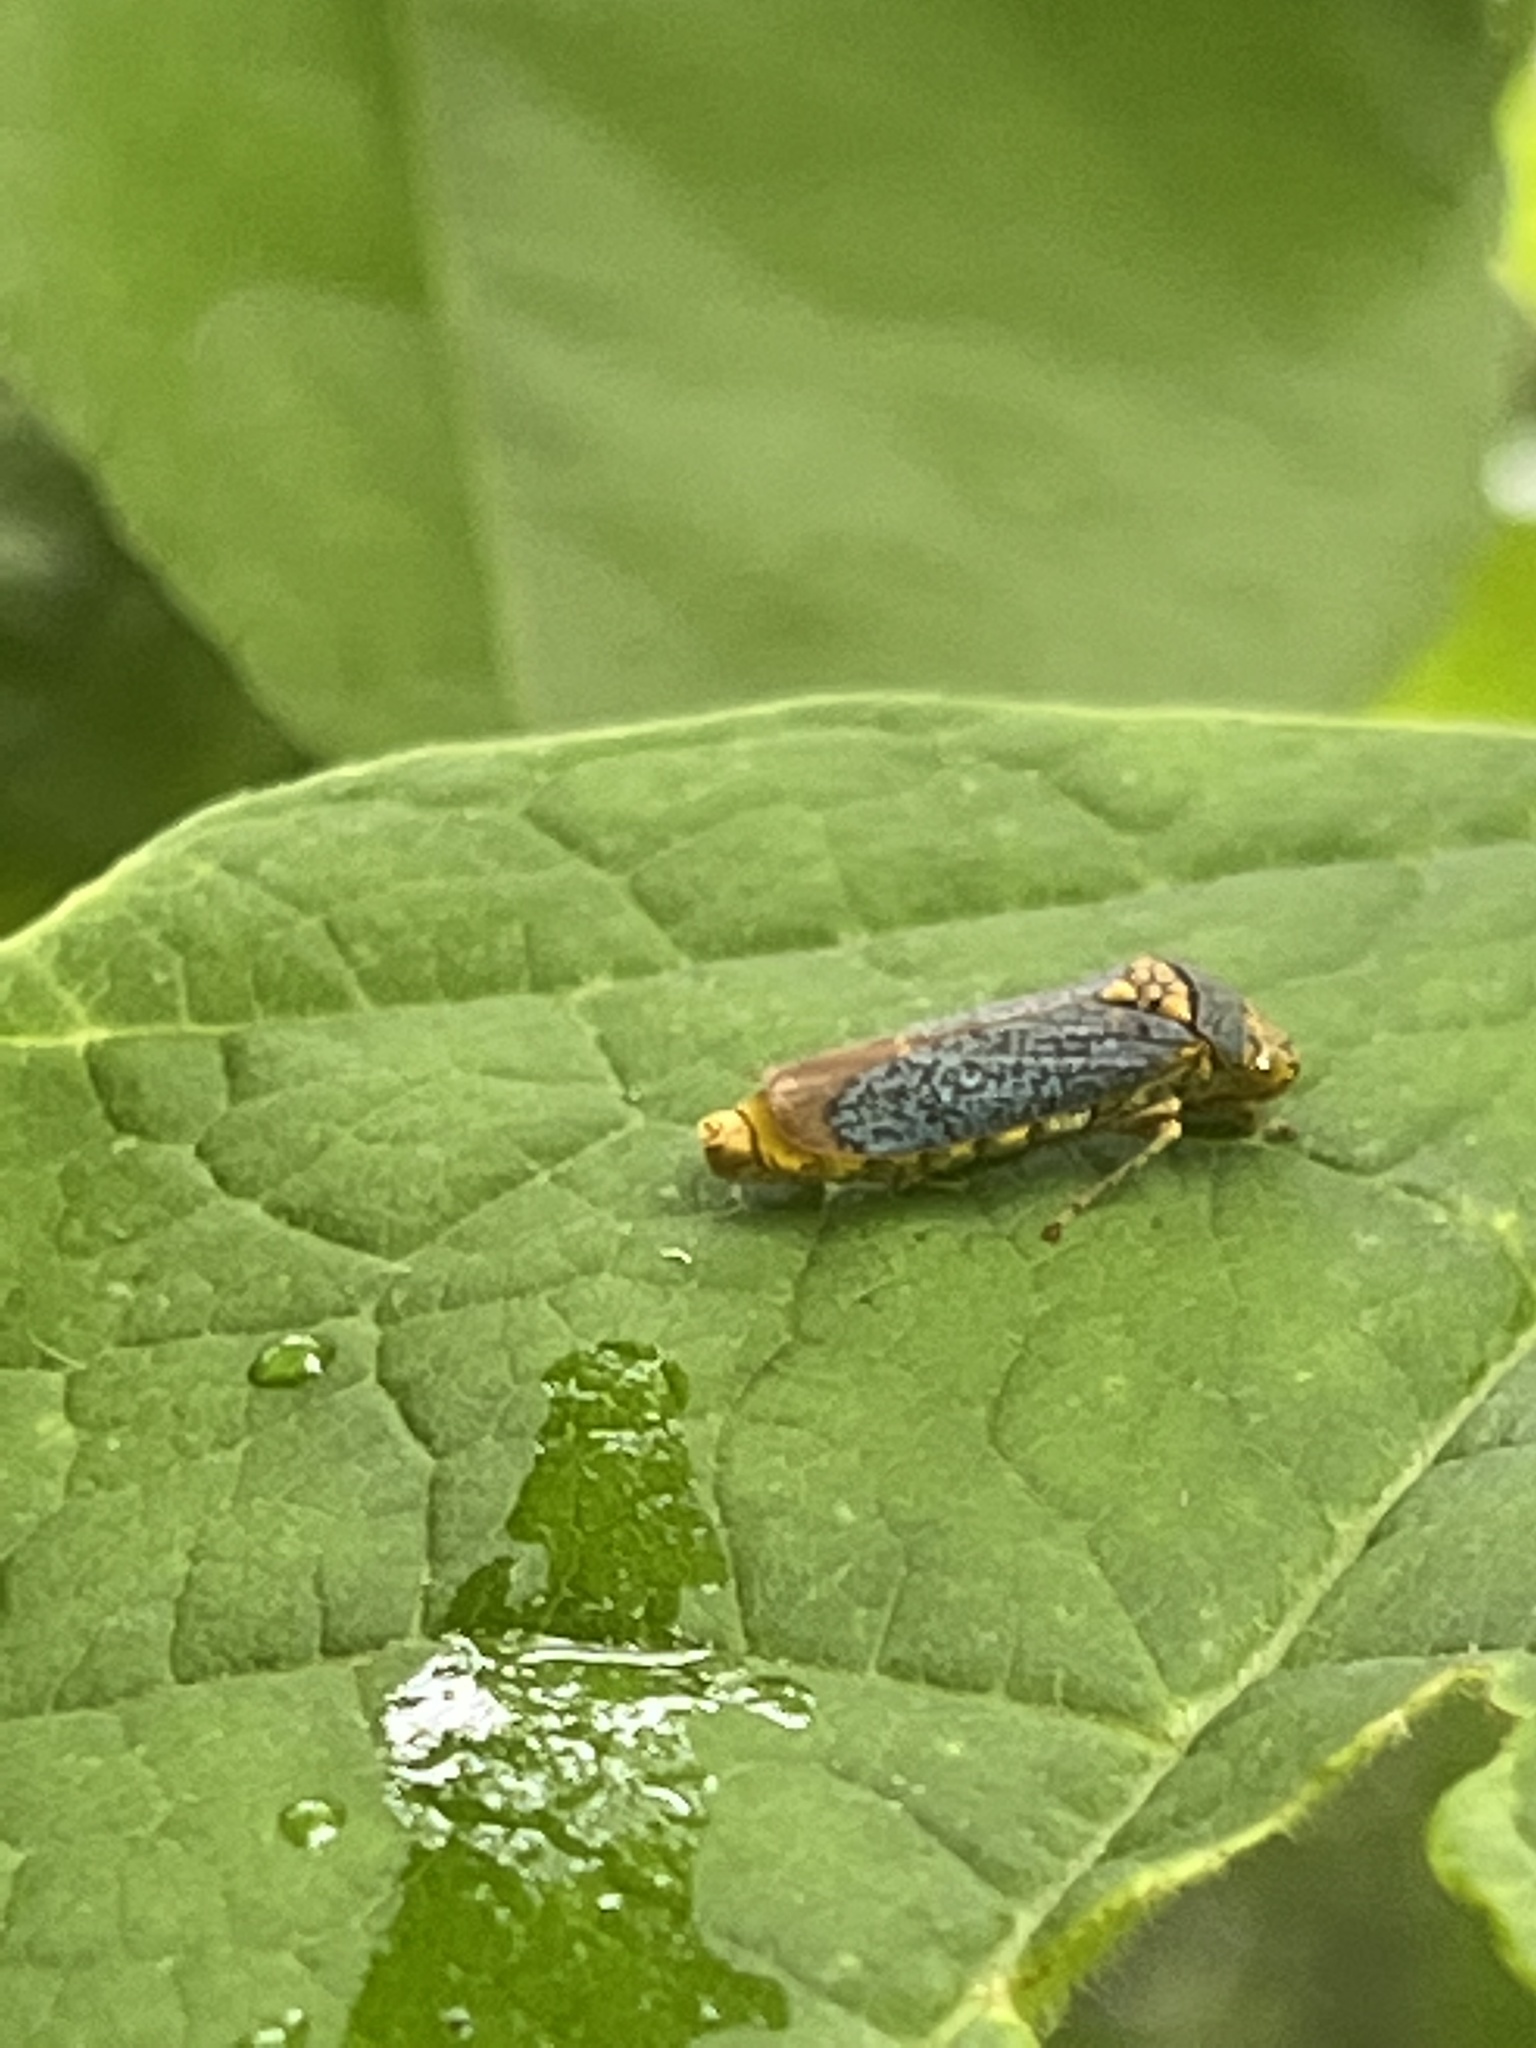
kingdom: Animalia
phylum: Arthropoda
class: Insecta
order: Hemiptera
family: Cicadellidae
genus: Oncometopia
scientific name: Oncometopia orbona
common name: Broad-headed sharpshooter
